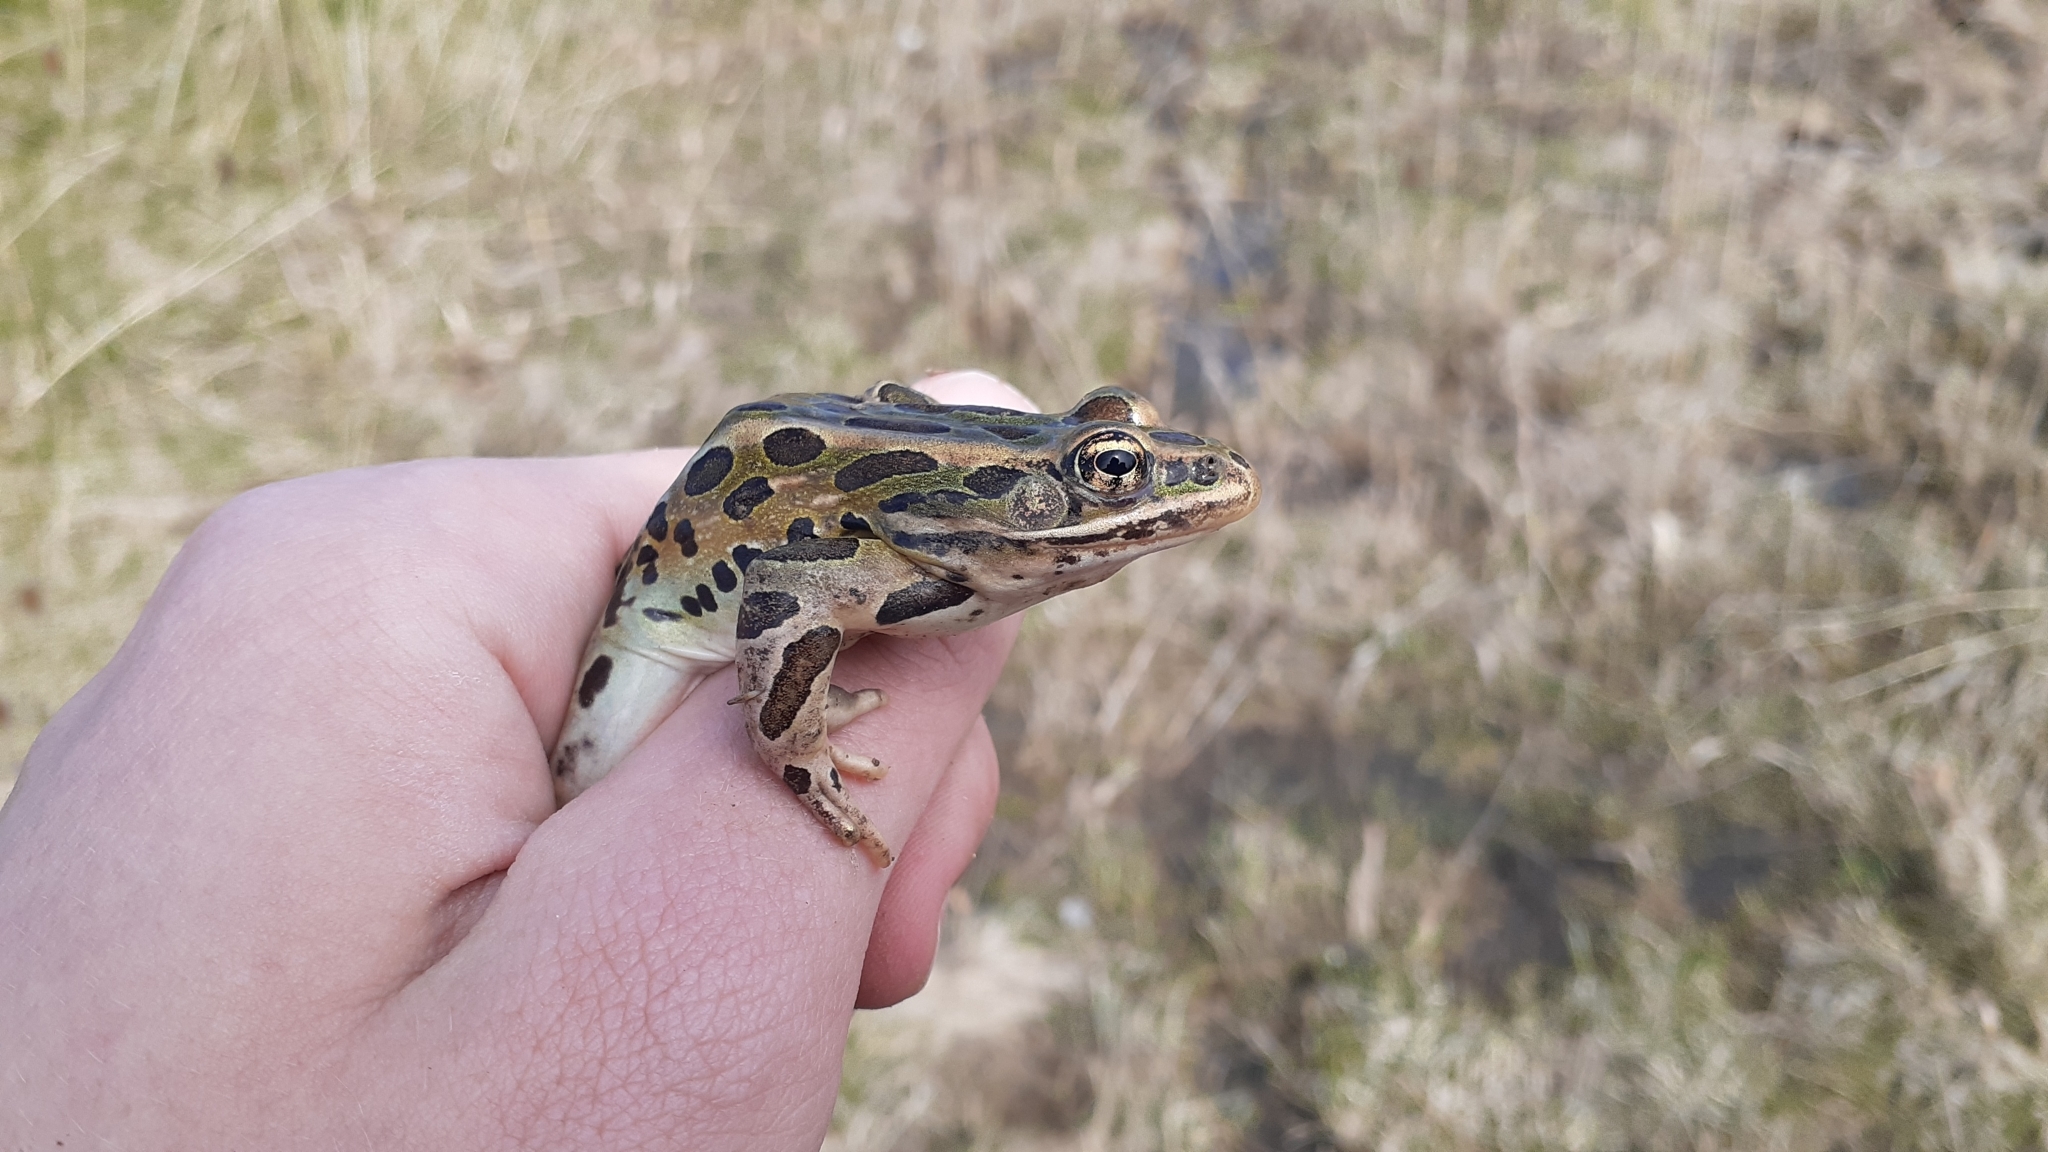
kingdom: Animalia
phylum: Chordata
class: Amphibia
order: Anura
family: Ranidae
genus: Lithobates
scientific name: Lithobates pipiens
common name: Northern leopard frog
